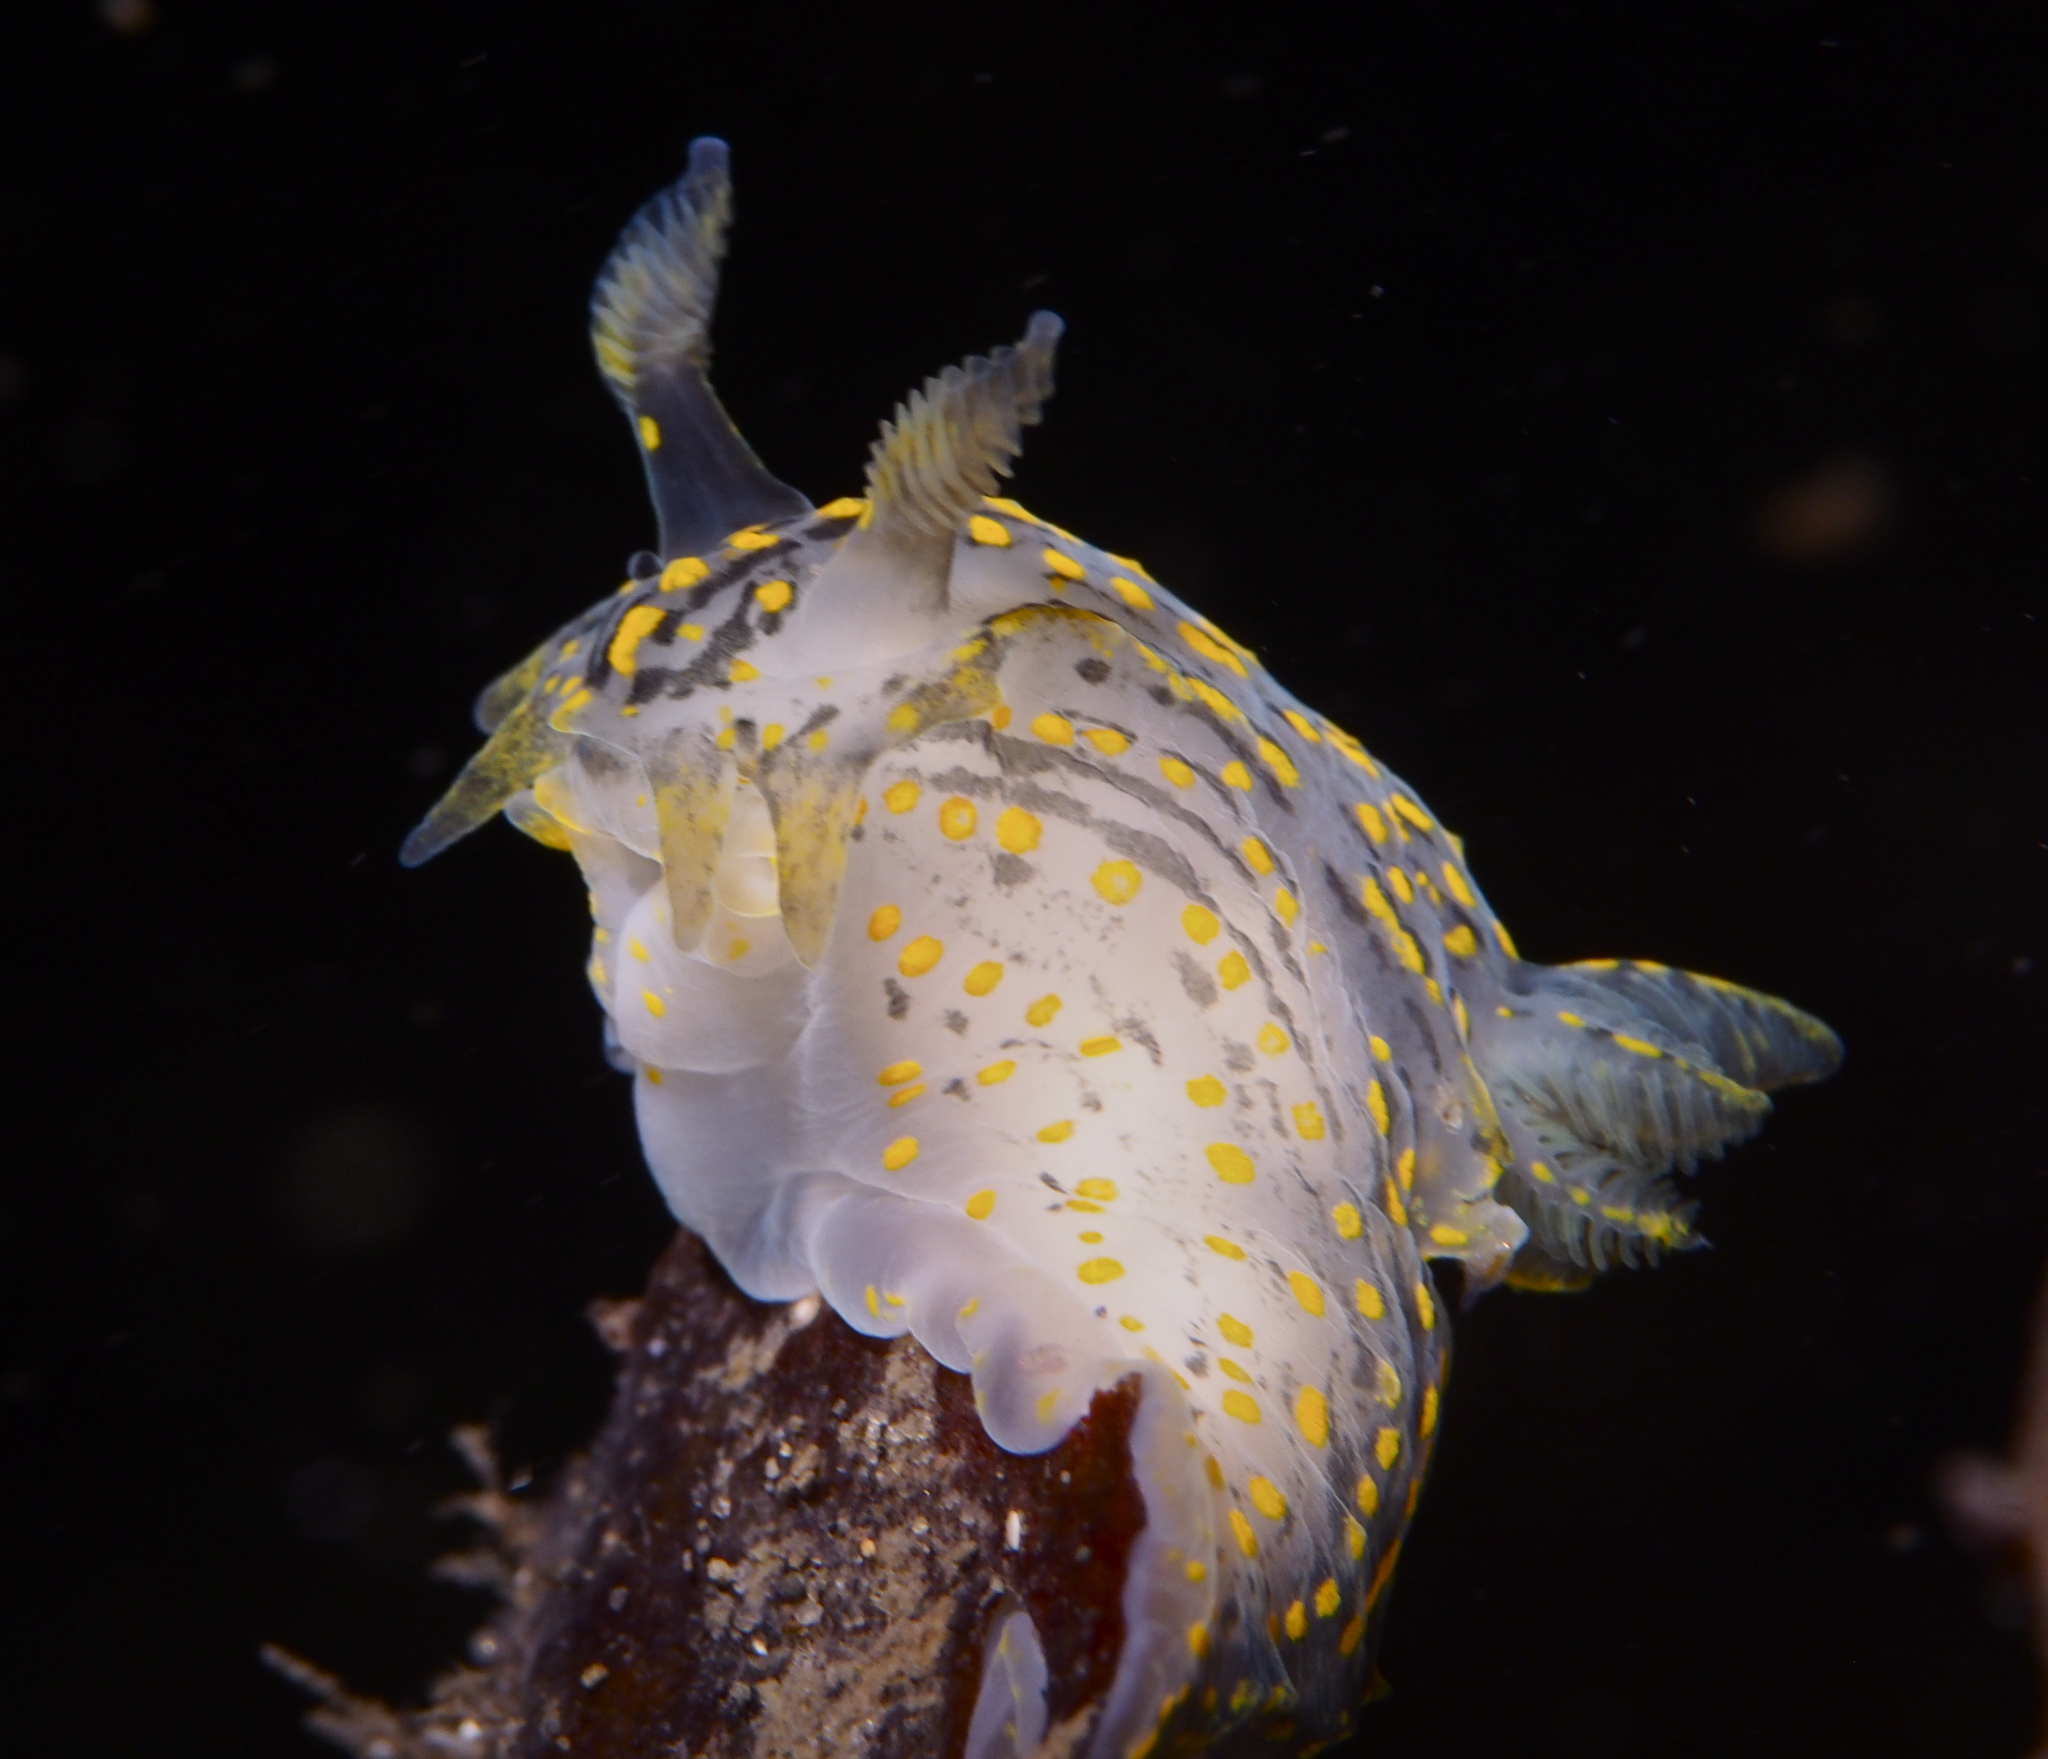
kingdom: Animalia
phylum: Mollusca
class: Gastropoda
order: Nudibranchia
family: Polyceridae
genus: Polycera
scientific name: Polycera quadrilineata
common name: Four-striped polycera
